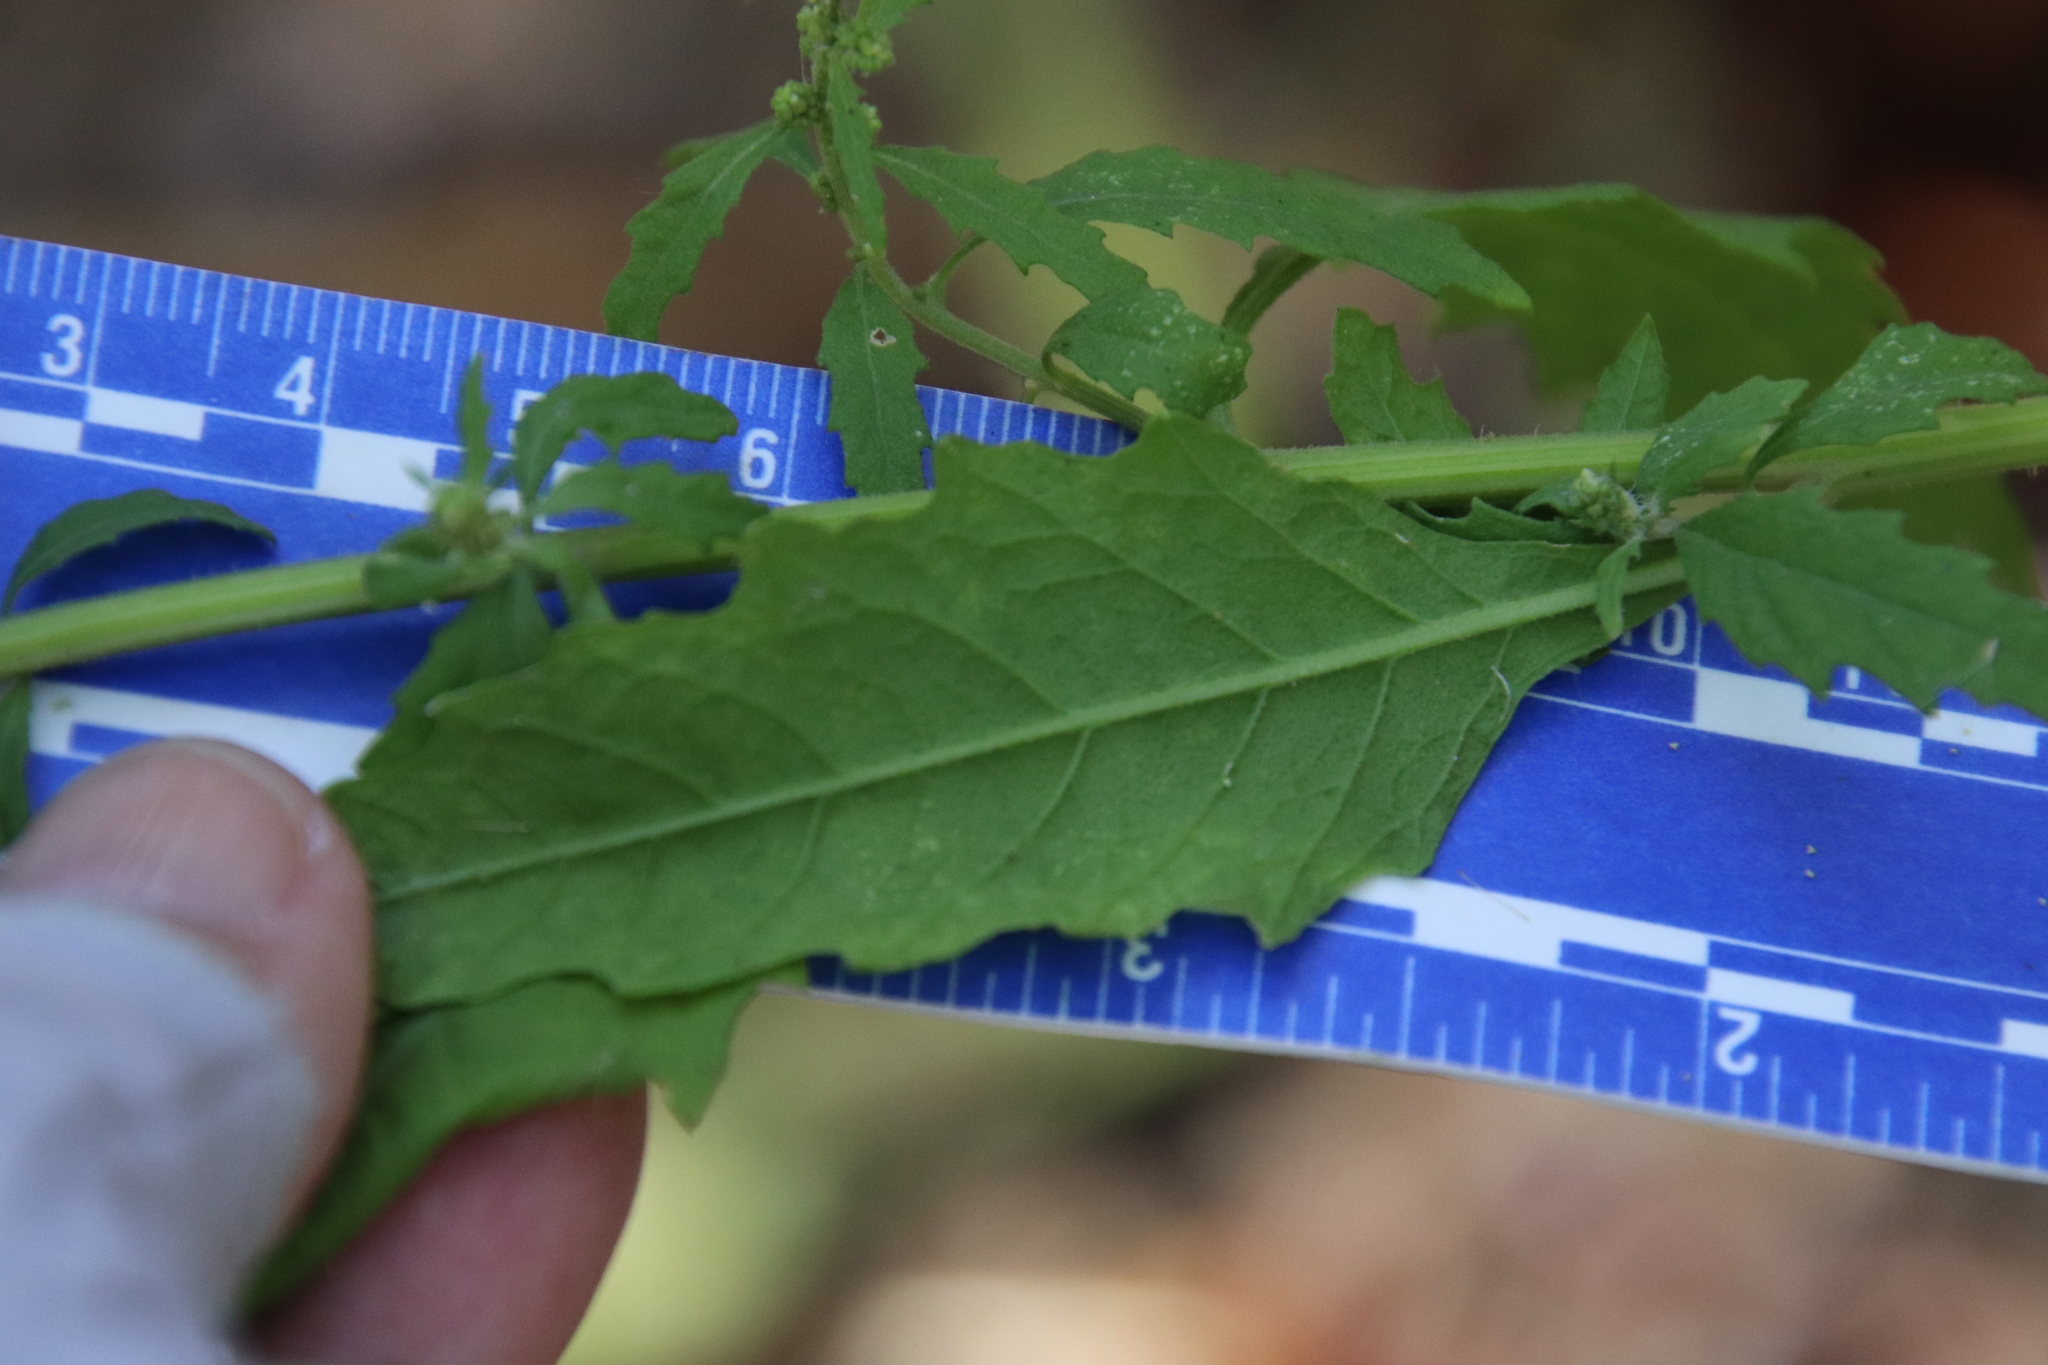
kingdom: Plantae
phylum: Tracheophyta
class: Magnoliopsida
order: Caryophyllales
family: Amaranthaceae
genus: Dysphania
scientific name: Dysphania ambrosioides
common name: Wormseed
